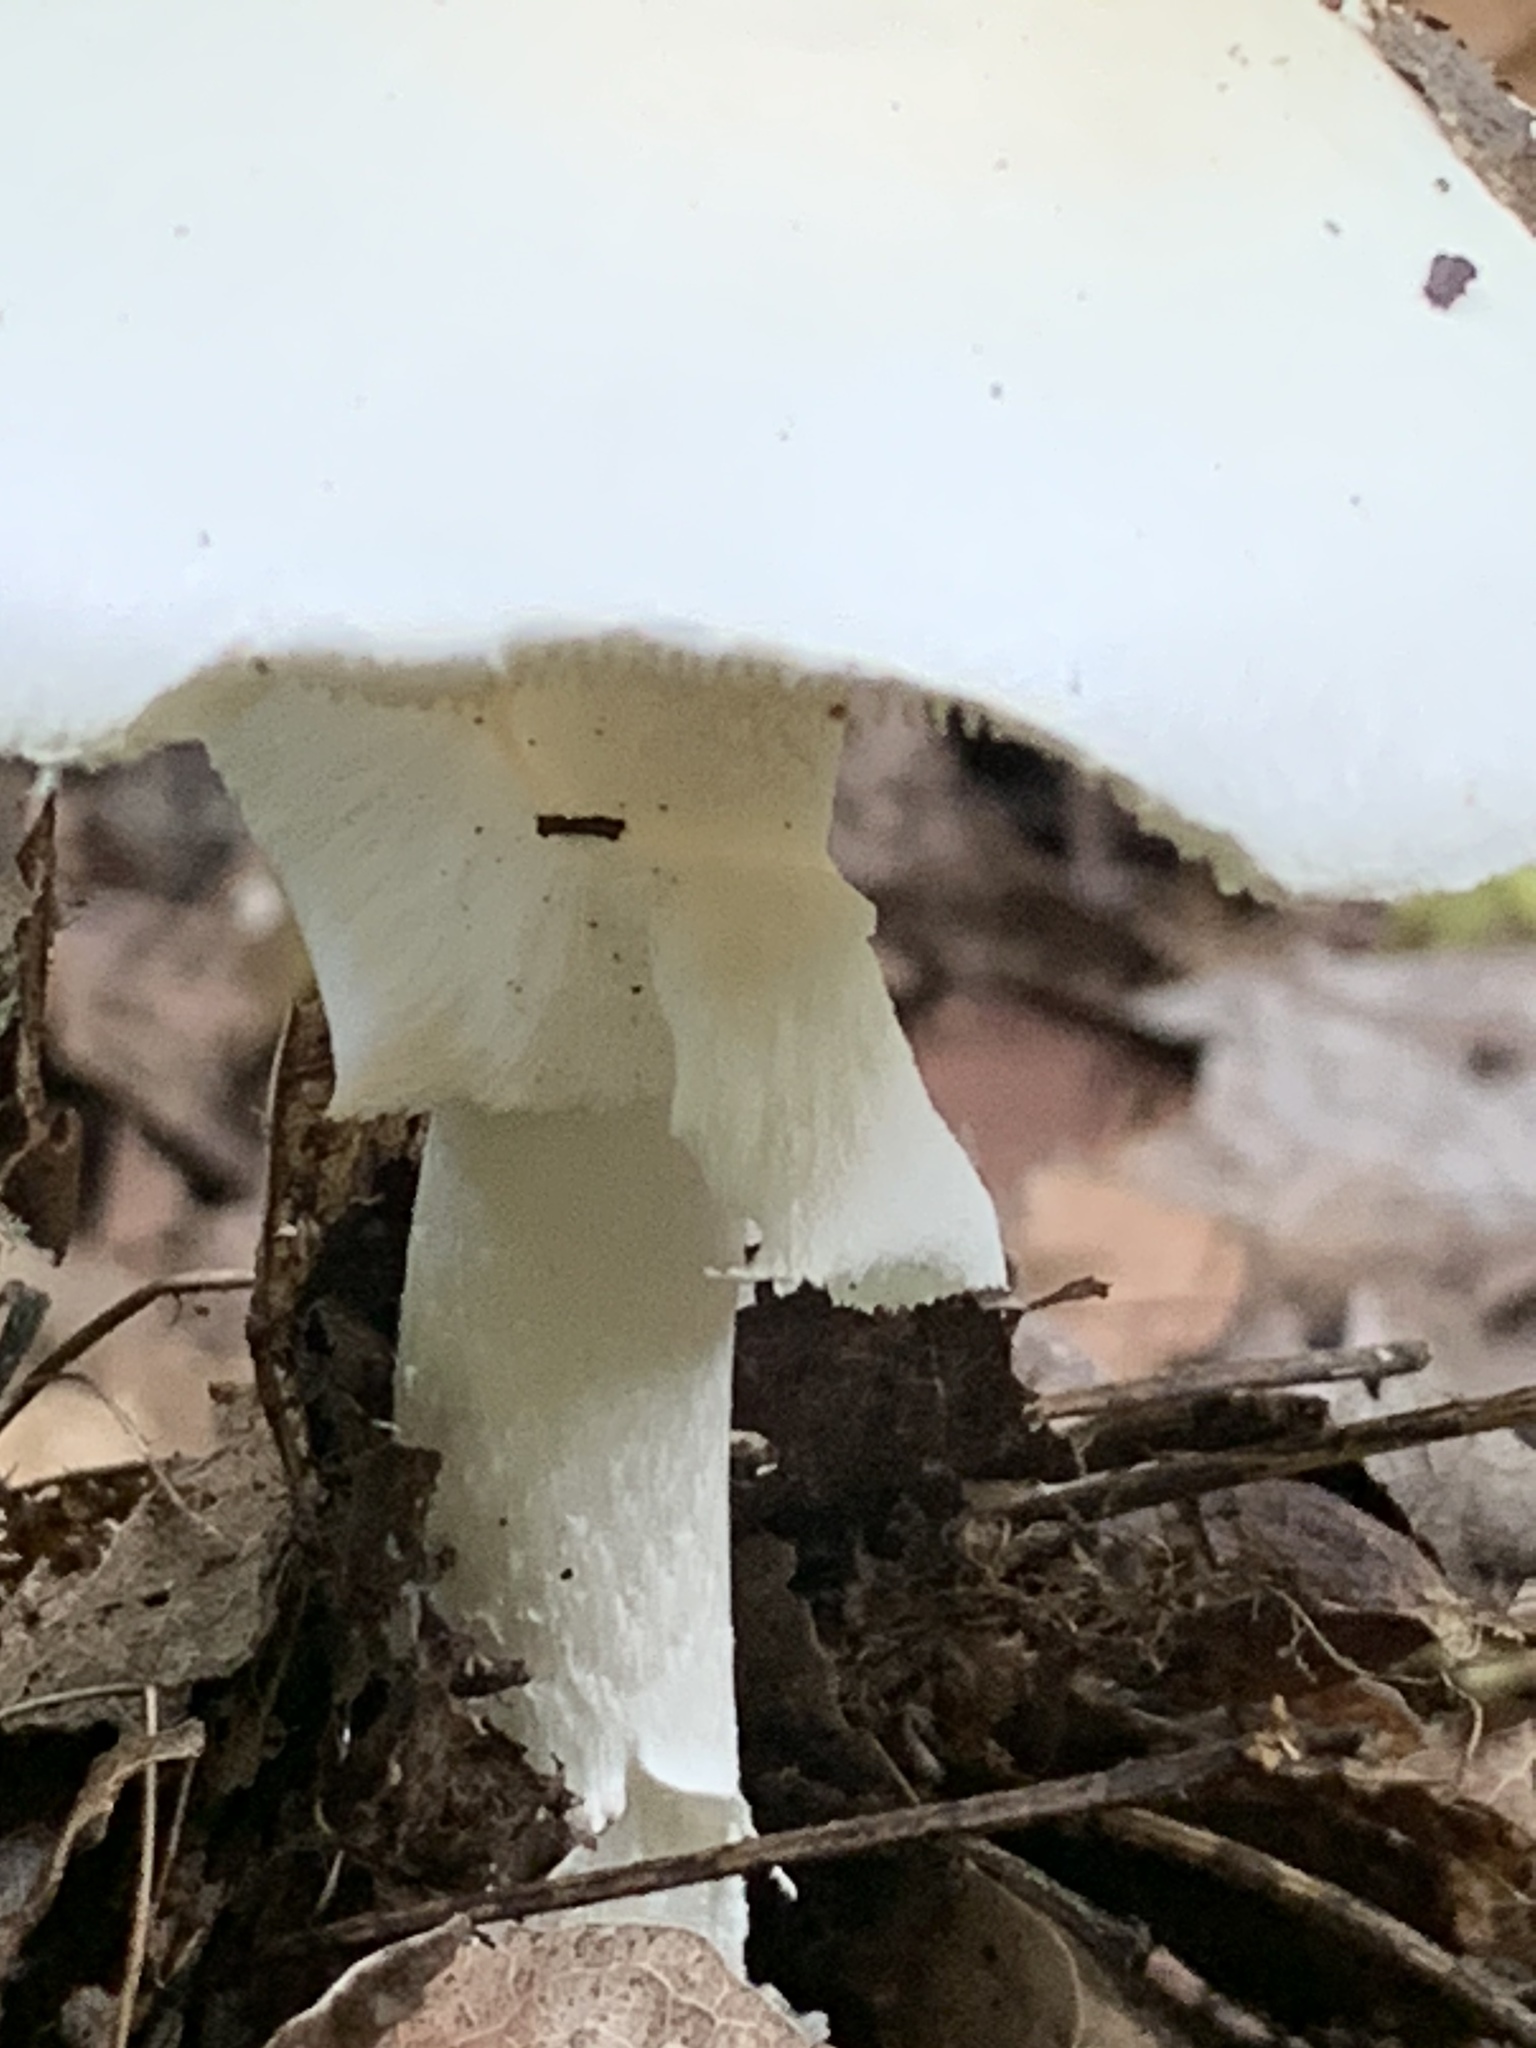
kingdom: Fungi
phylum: Basidiomycota
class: Agaricomycetes
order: Agaricales
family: Amanitaceae
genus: Amanita
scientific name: Amanita bisporigera
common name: Eastern north american destroying angel
